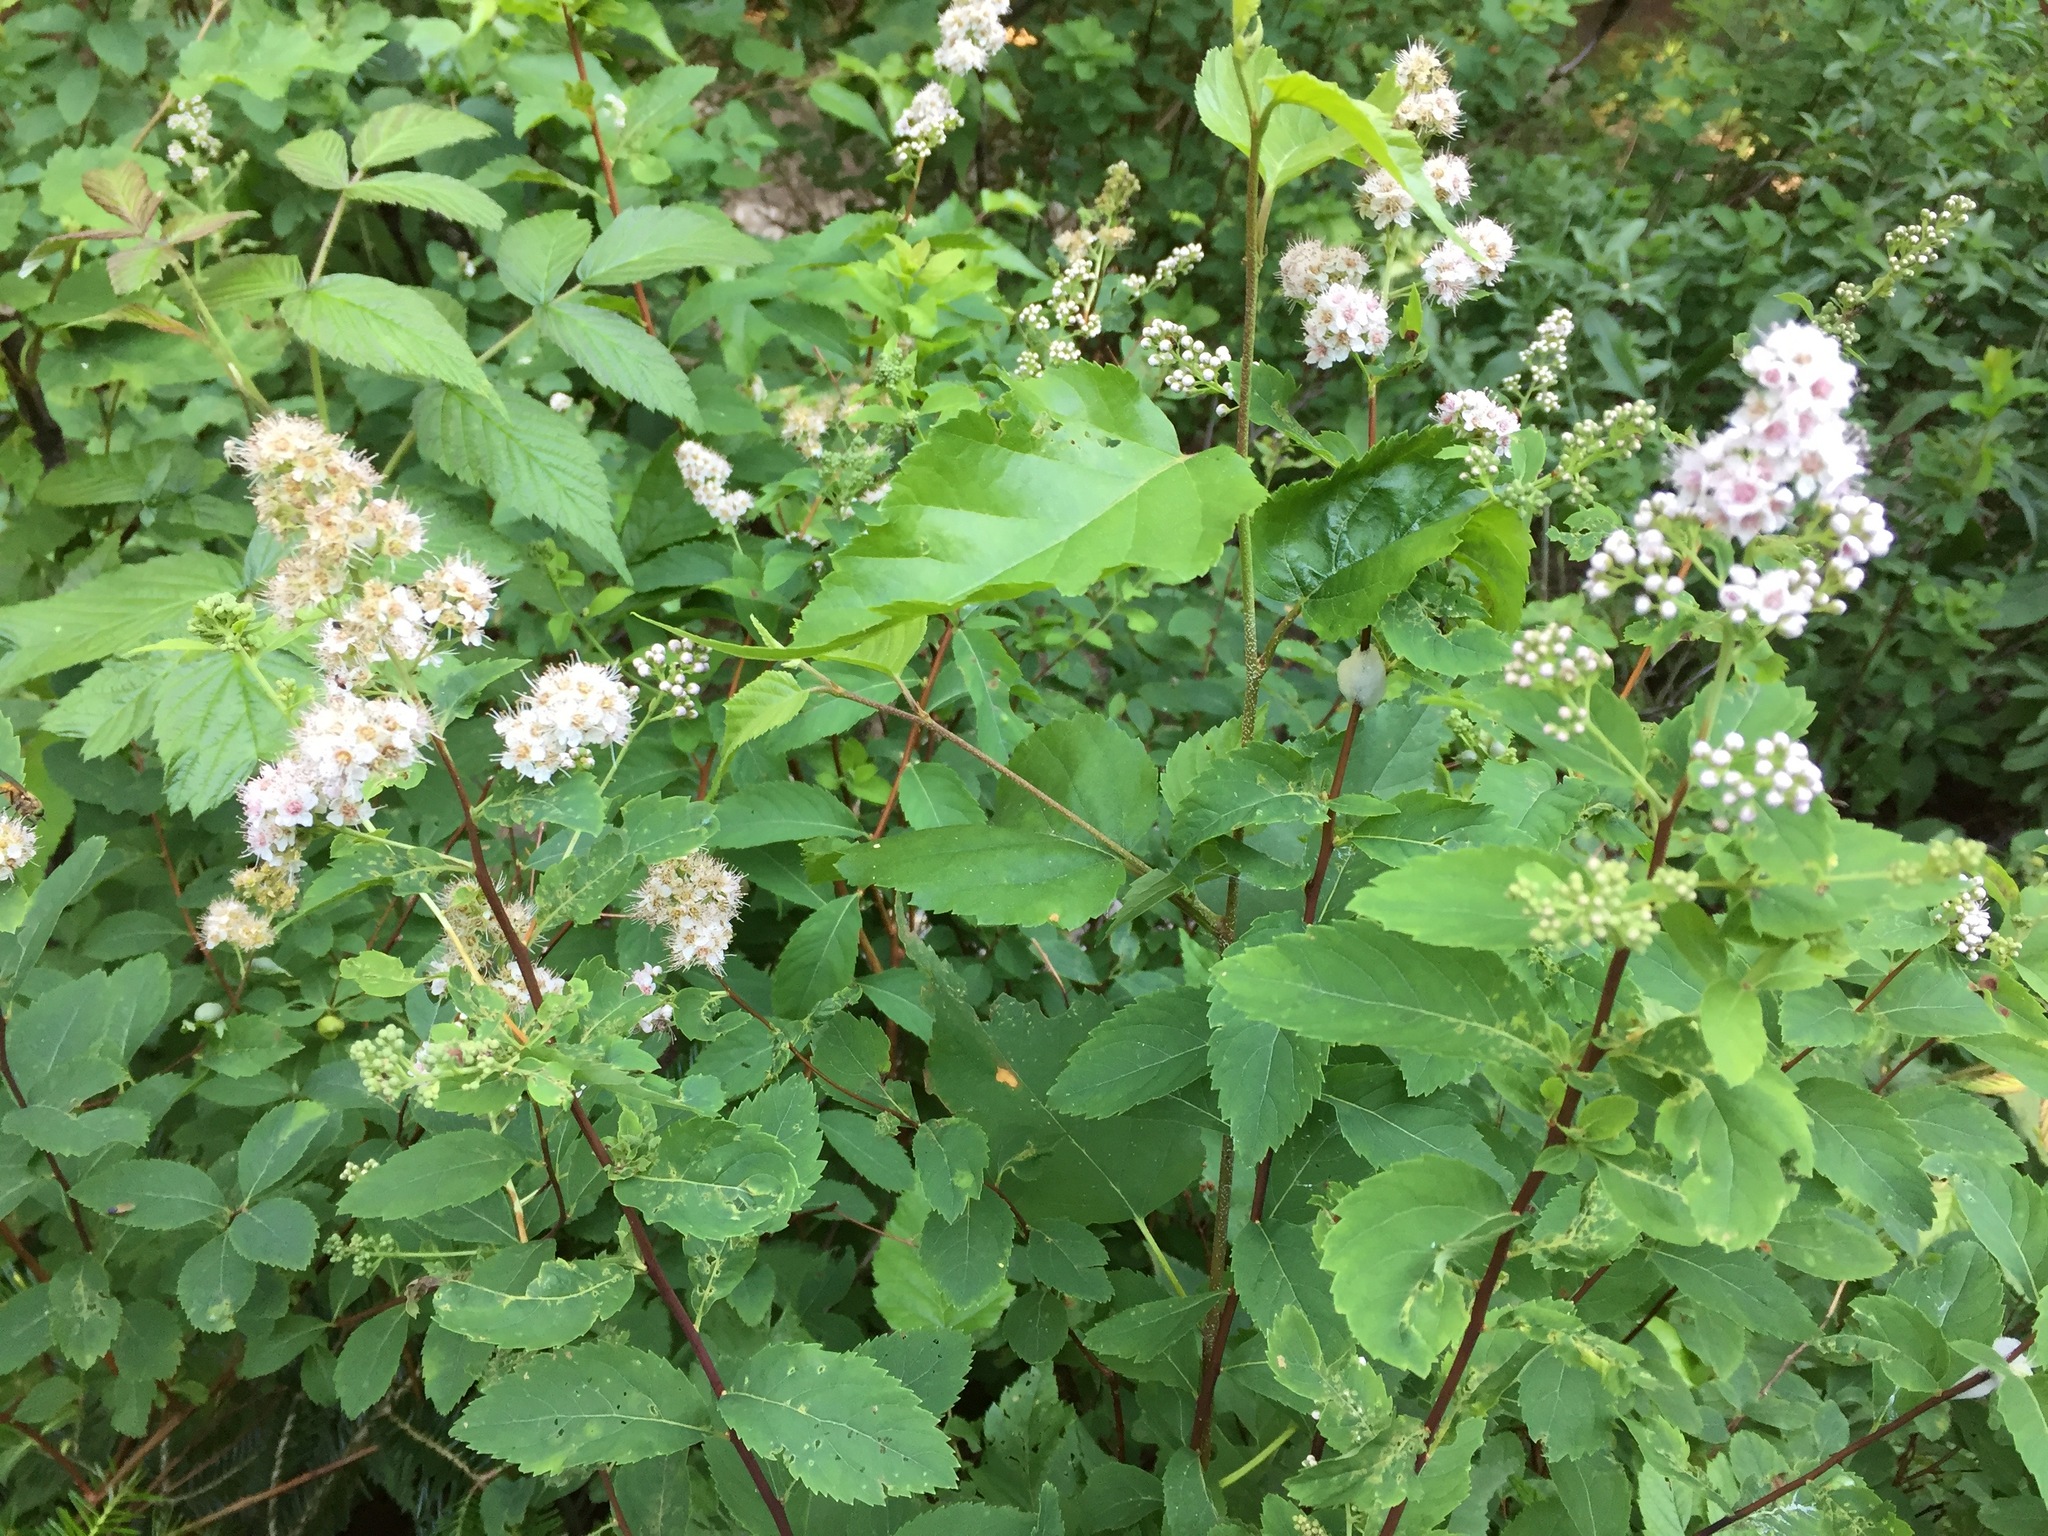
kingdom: Plantae
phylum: Tracheophyta
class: Magnoliopsida
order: Rosales
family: Rosaceae
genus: Spiraea
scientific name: Spiraea alba
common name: Pale bridewort
